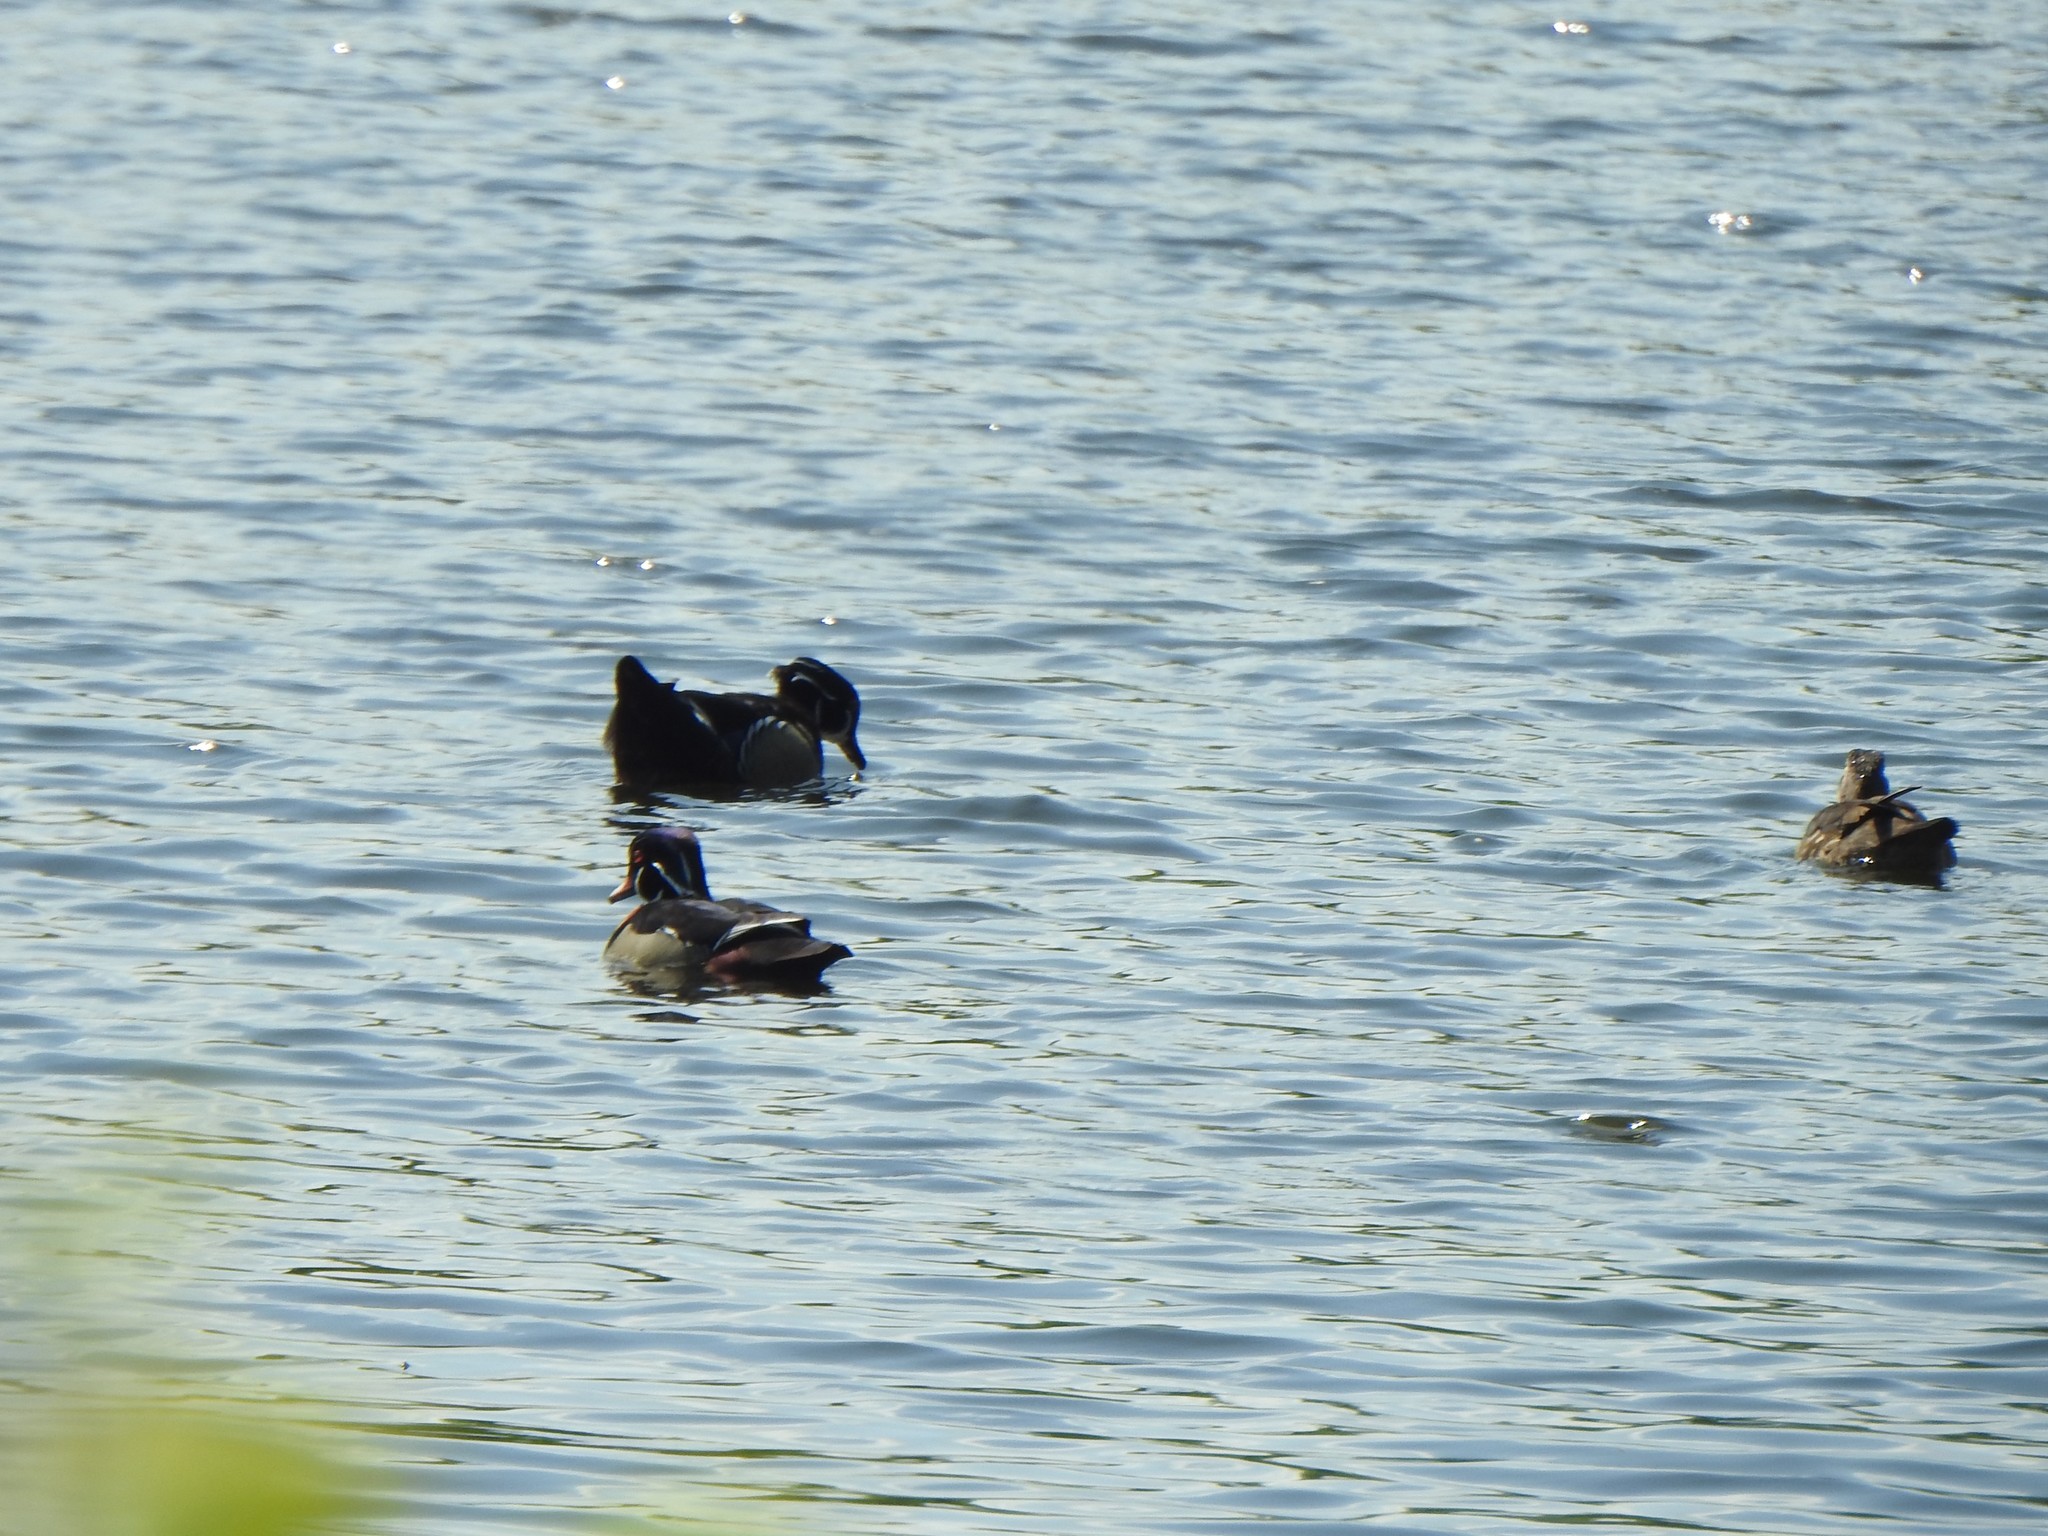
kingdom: Animalia
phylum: Chordata
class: Aves
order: Anseriformes
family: Anatidae
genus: Aix
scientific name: Aix sponsa
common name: Wood duck
